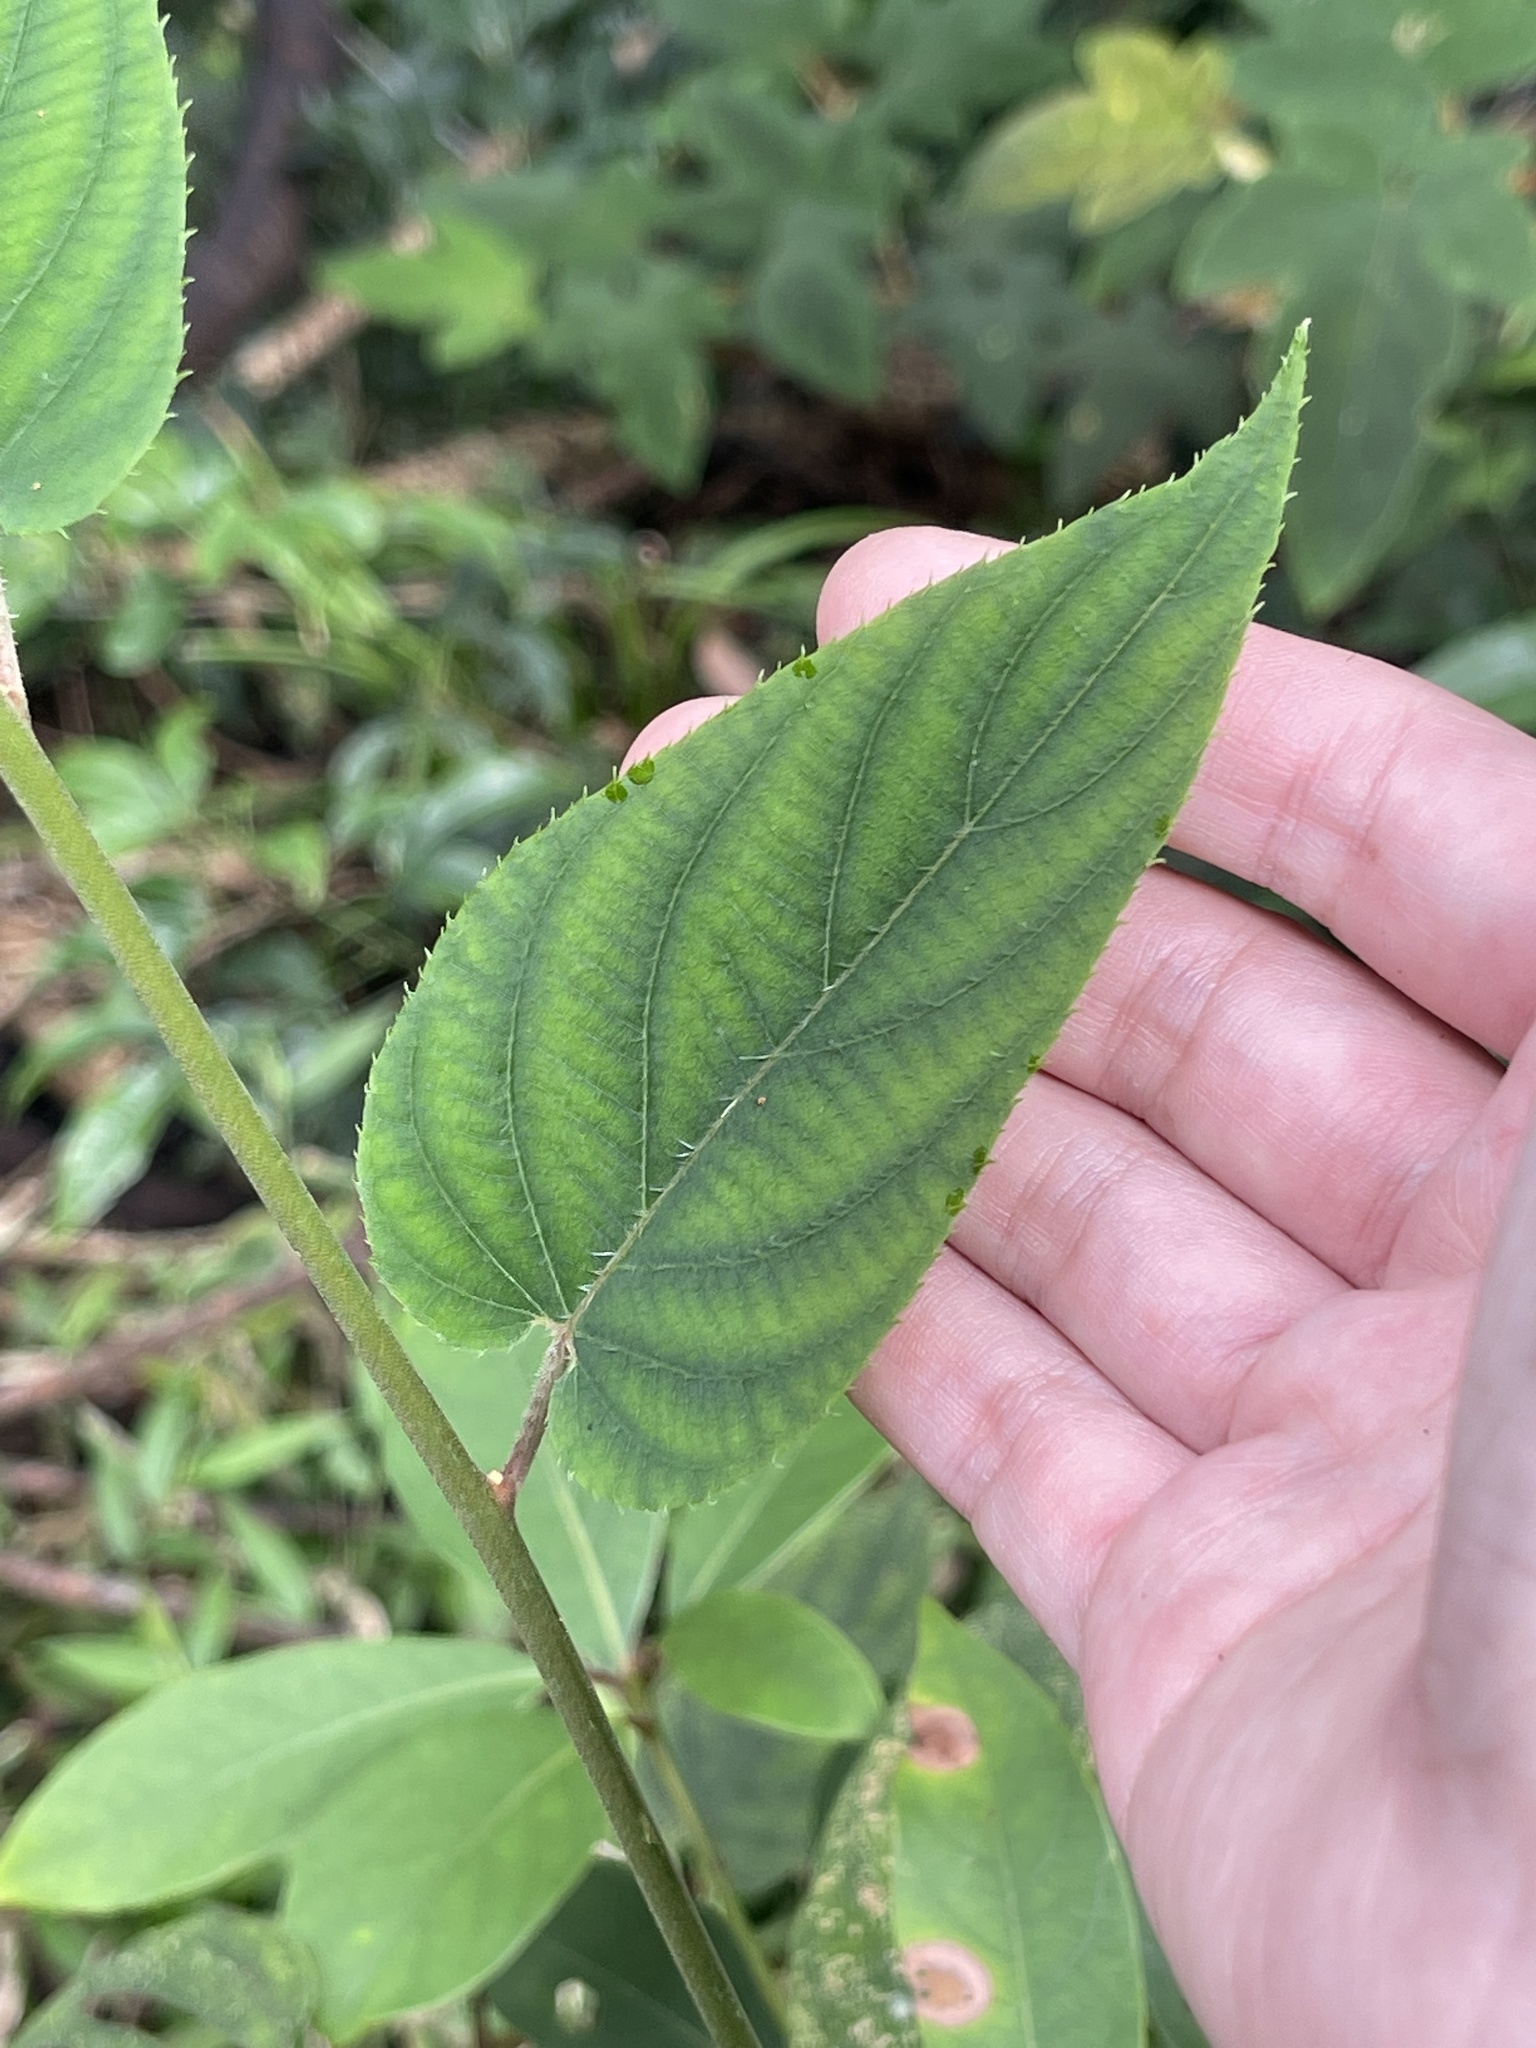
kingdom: Plantae
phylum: Tracheophyta
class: Magnoliopsida
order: Ericales
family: Actinidiaceae
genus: Actinidia
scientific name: Actinidia latifolia
